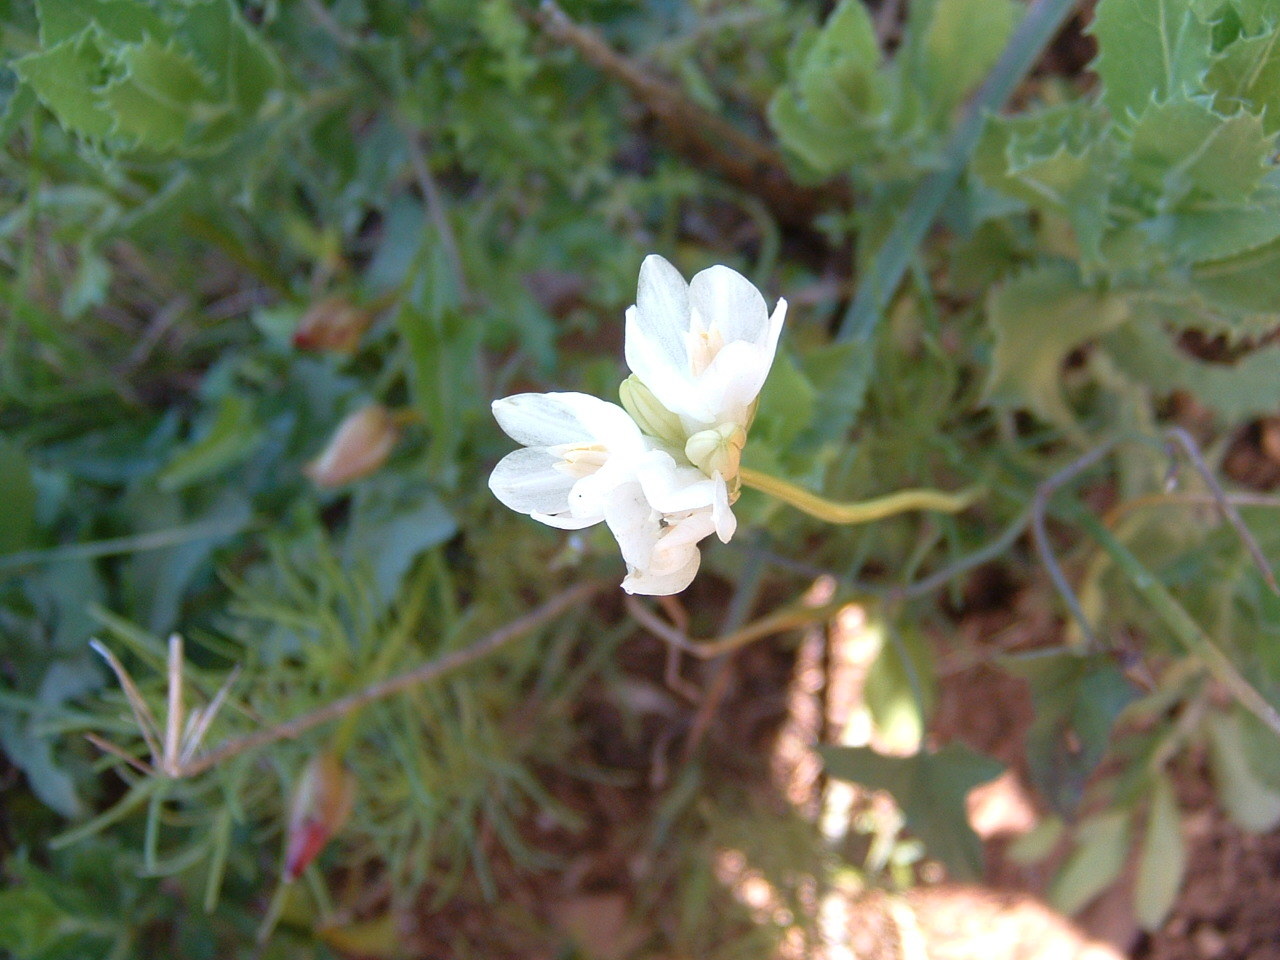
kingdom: Plantae
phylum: Tracheophyta
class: Liliopsida
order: Asparagales
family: Asparagaceae
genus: Dipterostemon
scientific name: Dipterostemon capitatus
